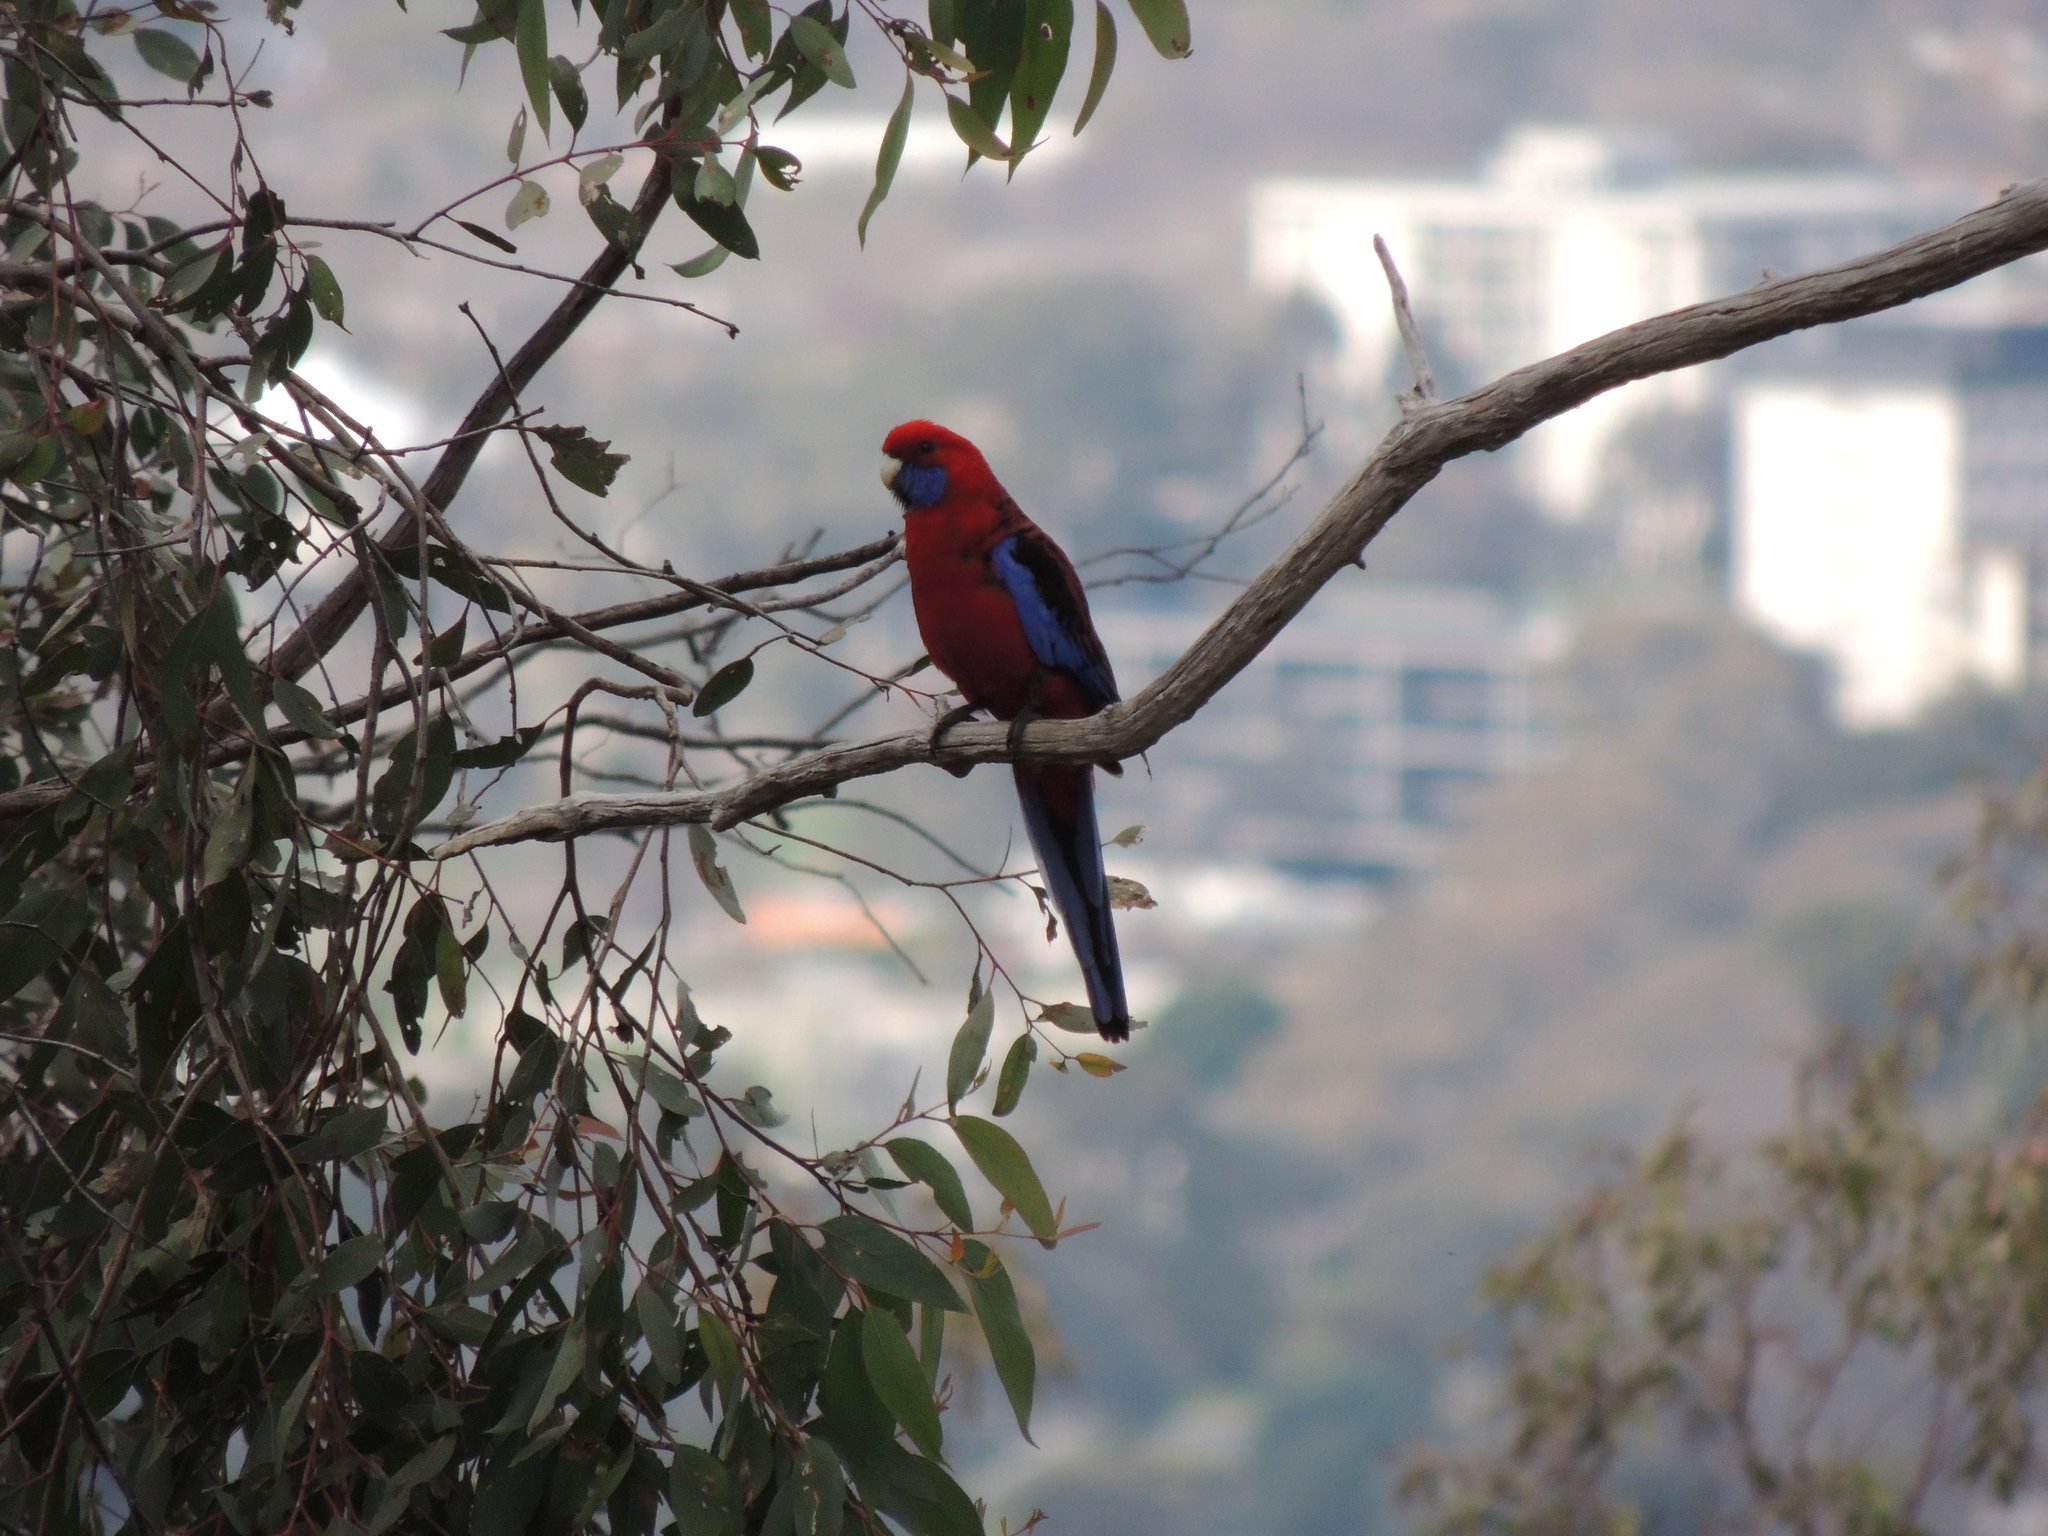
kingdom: Animalia
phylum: Chordata
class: Aves
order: Psittaciformes
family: Psittacidae
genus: Platycercus
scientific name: Platycercus elegans
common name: Crimson rosella
